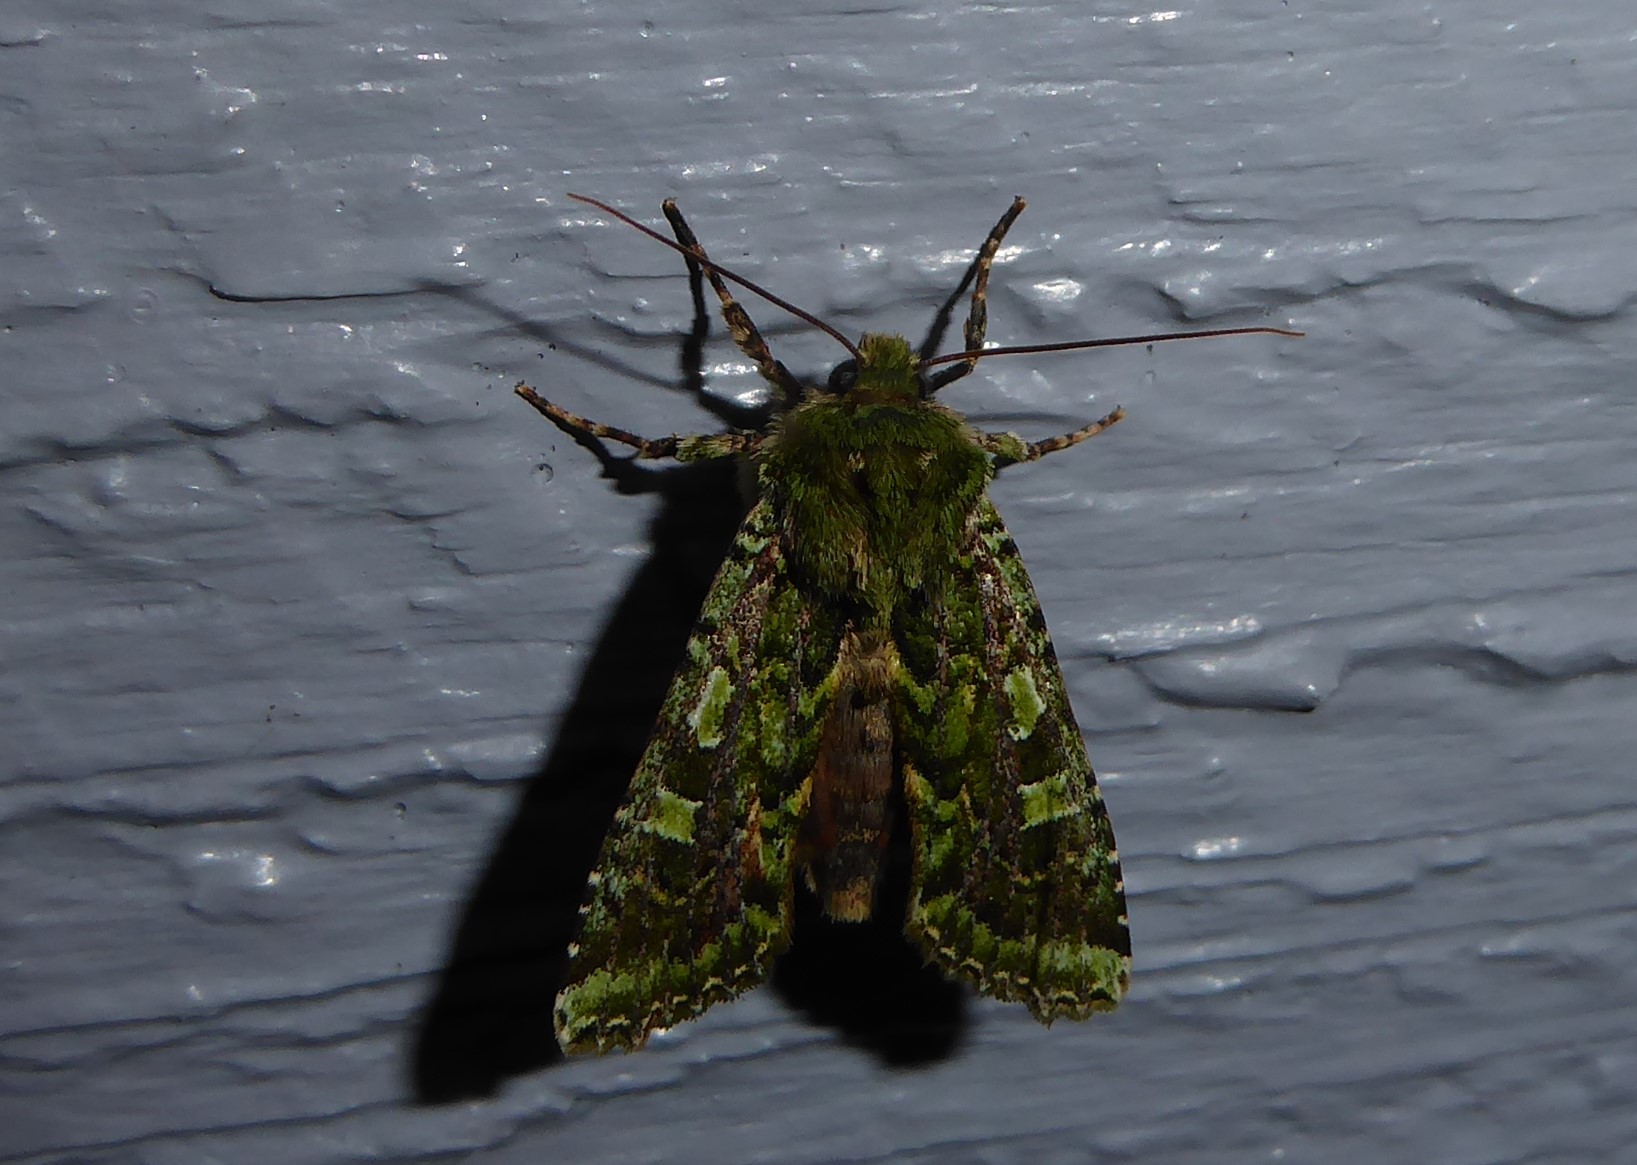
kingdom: Animalia
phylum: Arthropoda
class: Insecta
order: Lepidoptera
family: Noctuidae
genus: Feredayia
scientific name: Feredayia grammosa
